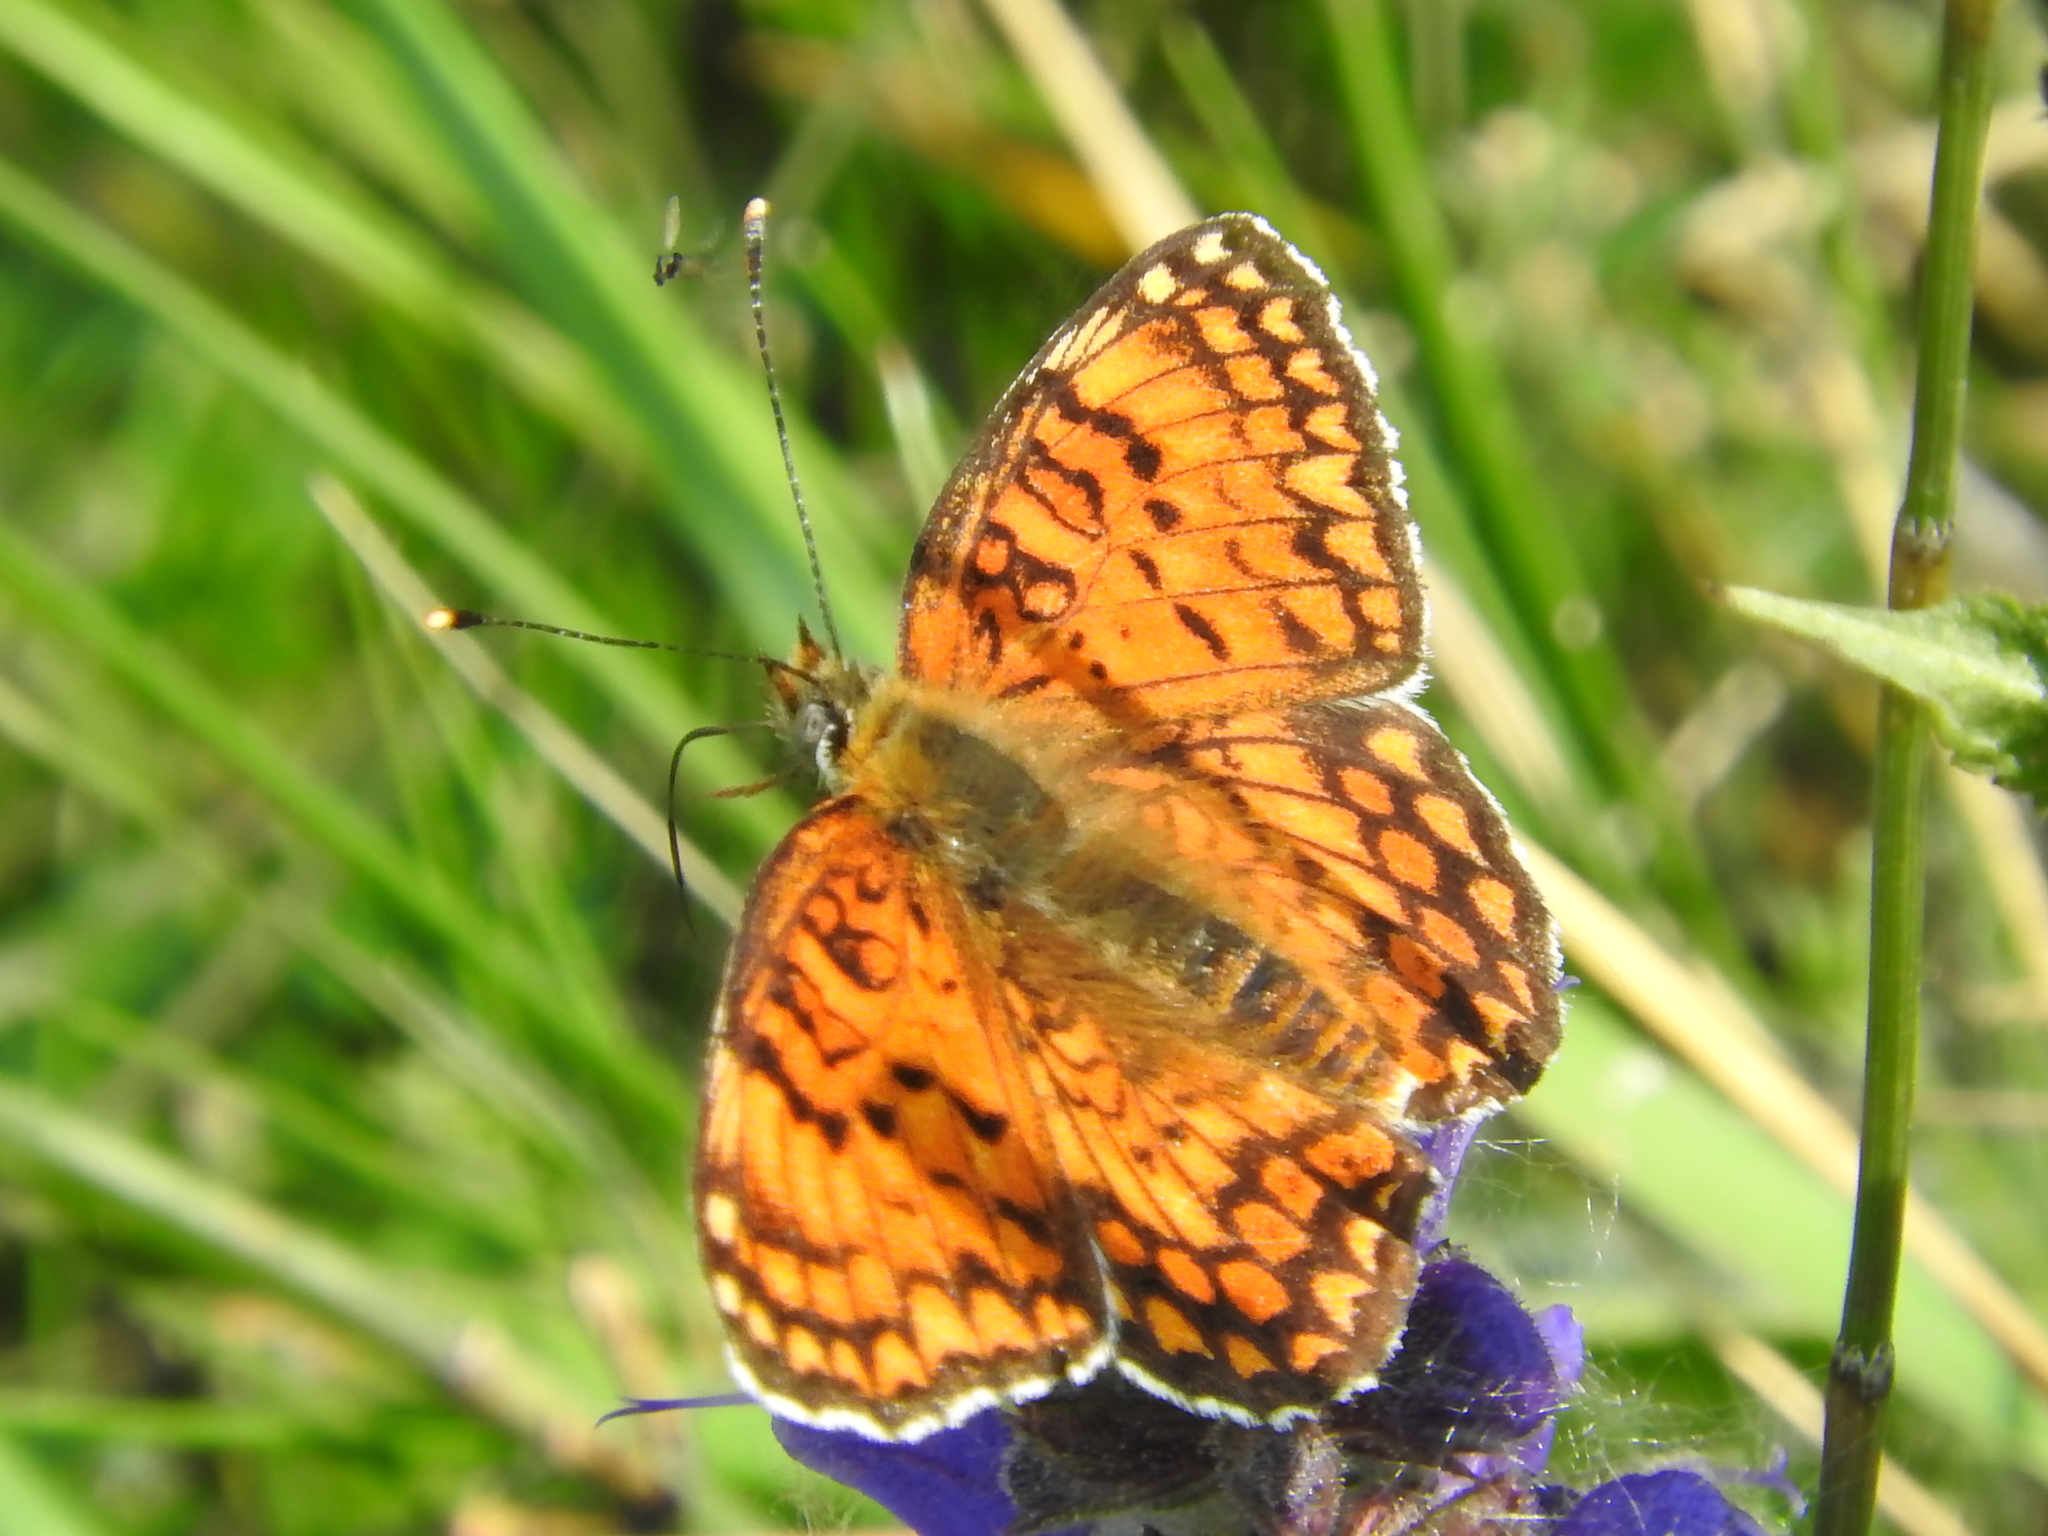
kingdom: Animalia
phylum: Arthropoda
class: Insecta
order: Lepidoptera
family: Nymphalidae
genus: Melitaea
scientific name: Melitaea phoebe
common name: Knapweed fritillary
